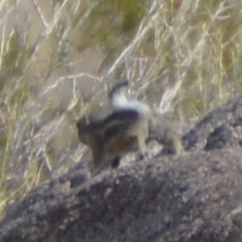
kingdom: Animalia
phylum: Chordata
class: Mammalia
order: Rodentia
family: Sciuridae
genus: Ammospermophilus
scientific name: Ammospermophilus leucurus
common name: White-tailed antelope squirrel
